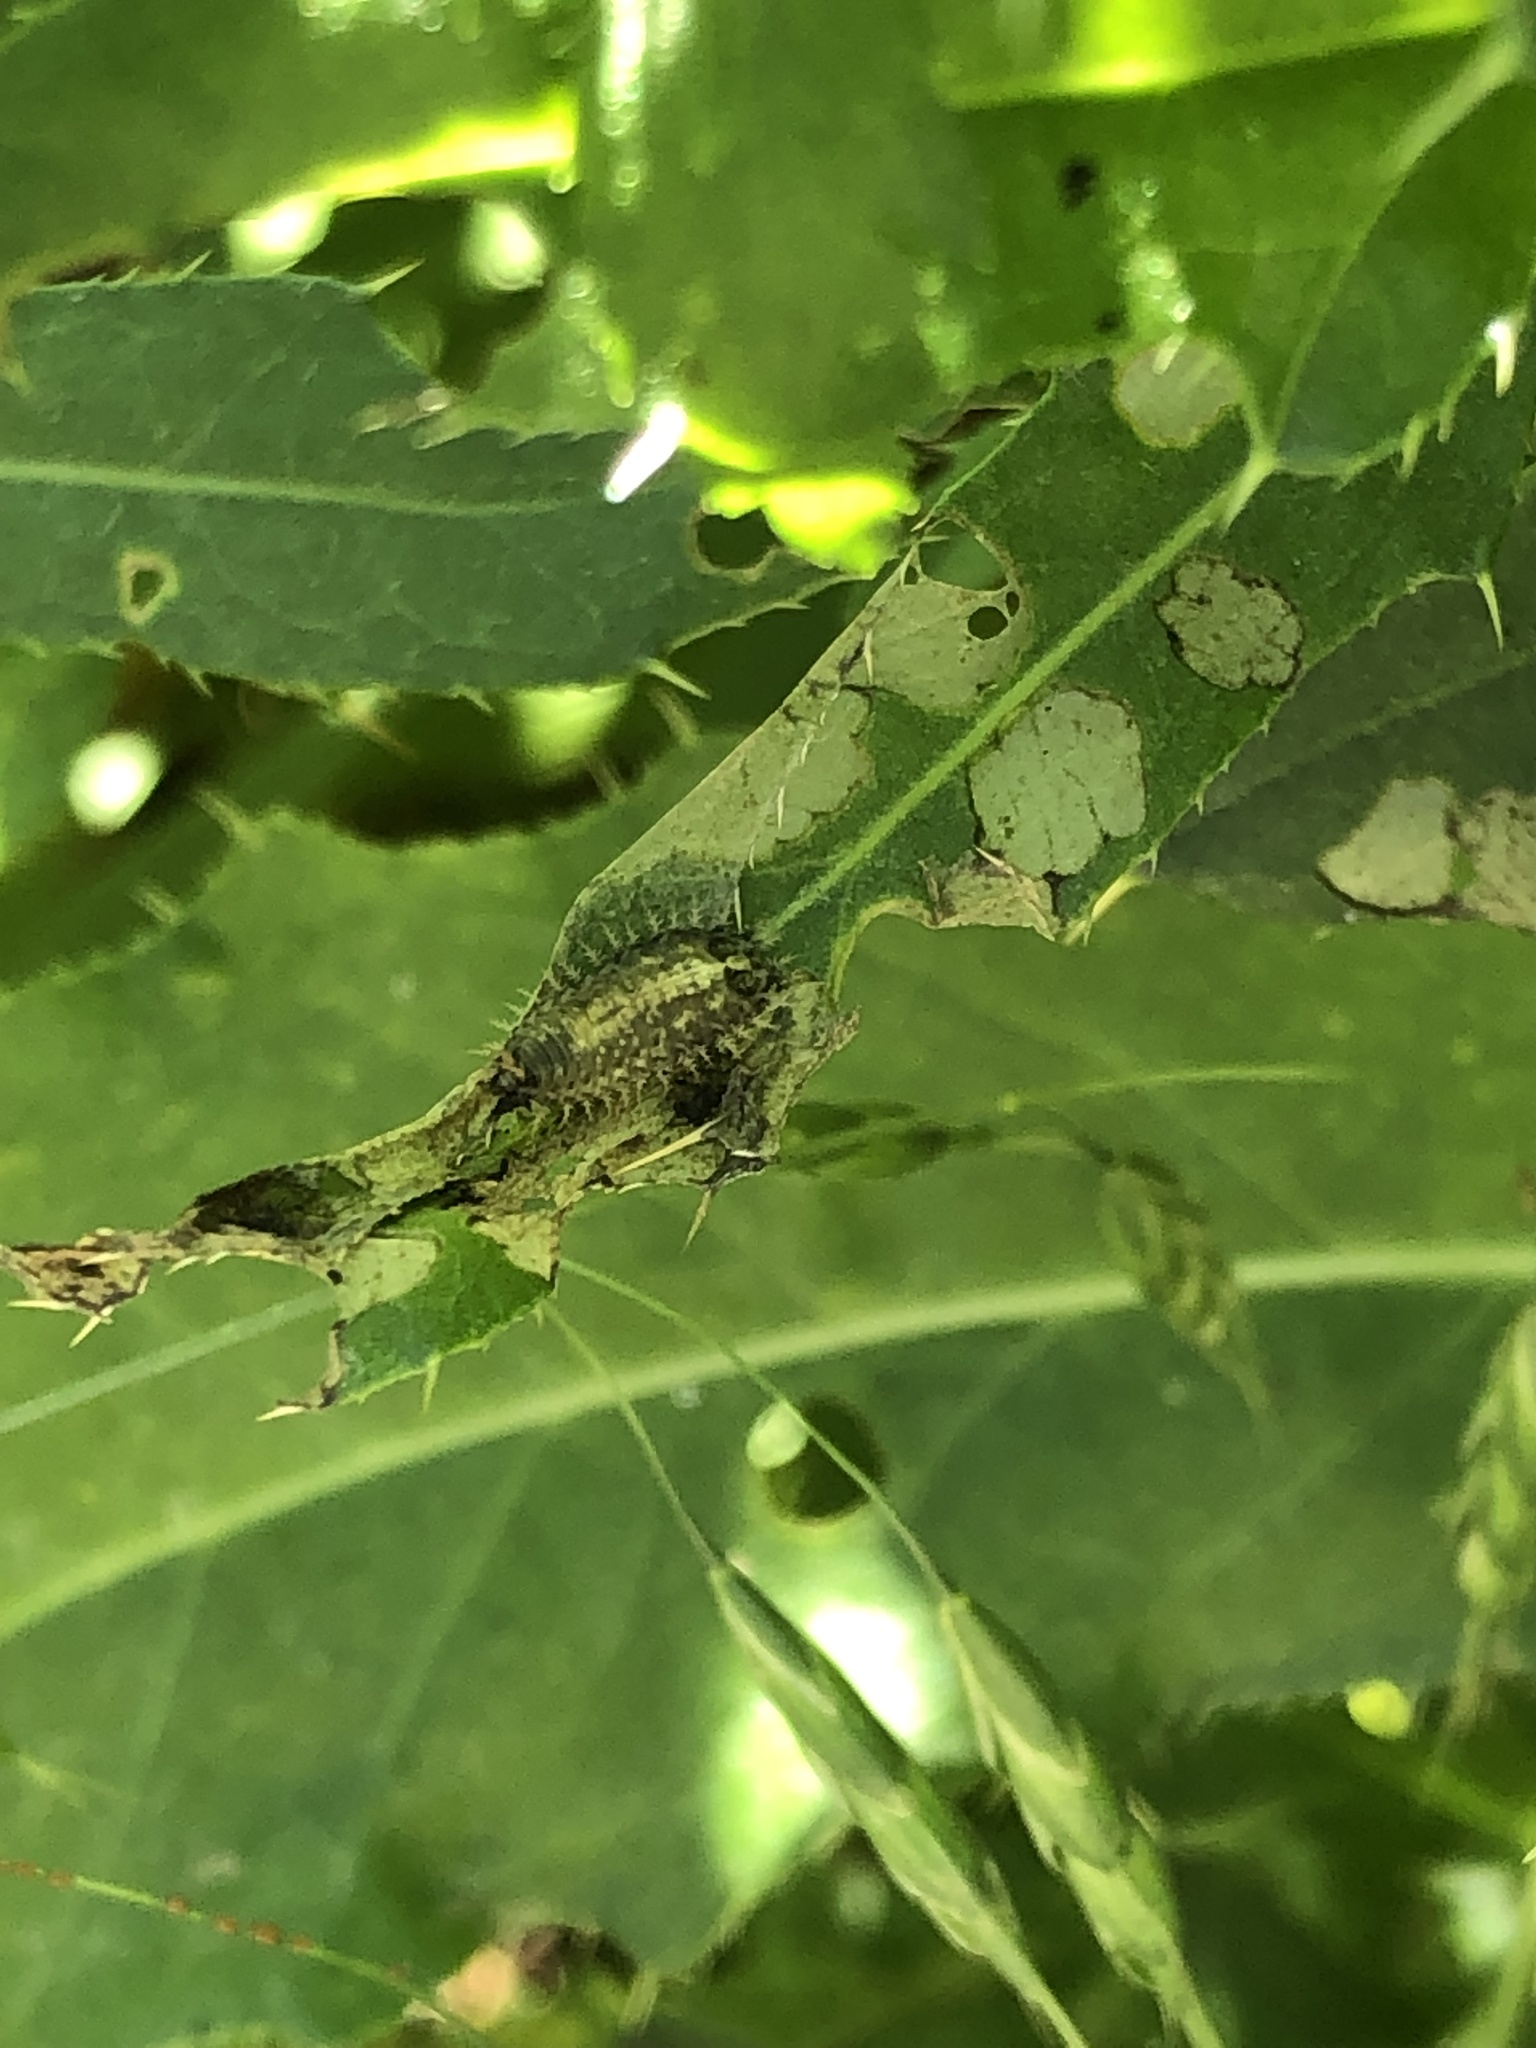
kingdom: Animalia
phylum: Arthropoda
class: Insecta
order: Coleoptera
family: Chrysomelidae
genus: Cassida
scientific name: Cassida rubiginosa
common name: Thistle tortoise beetle
